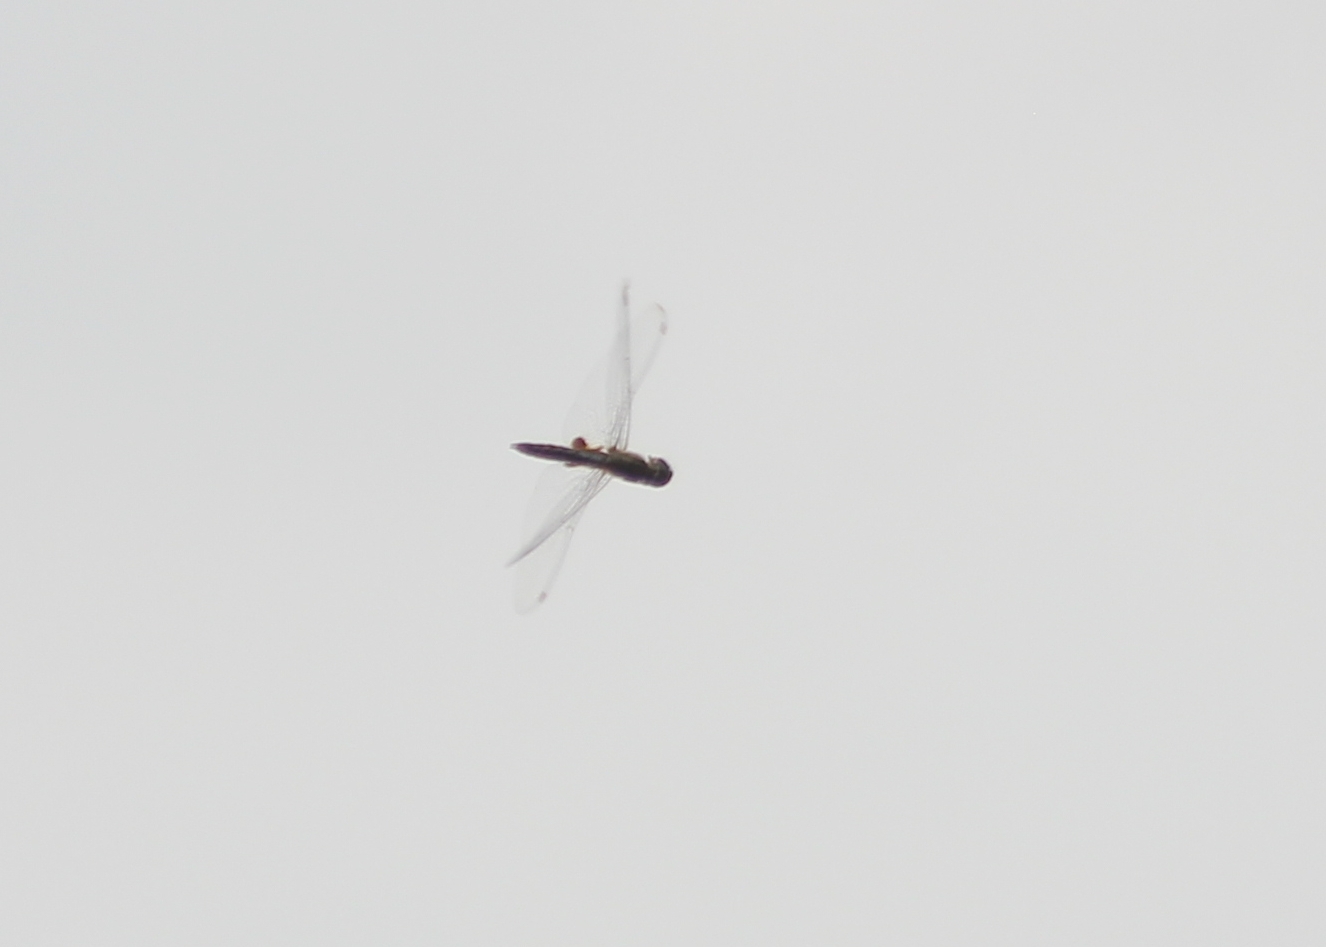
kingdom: Animalia
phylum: Arthropoda
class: Insecta
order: Odonata
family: Libellulidae
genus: Pantala
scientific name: Pantala hymenaea
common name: Spot-winged glider
